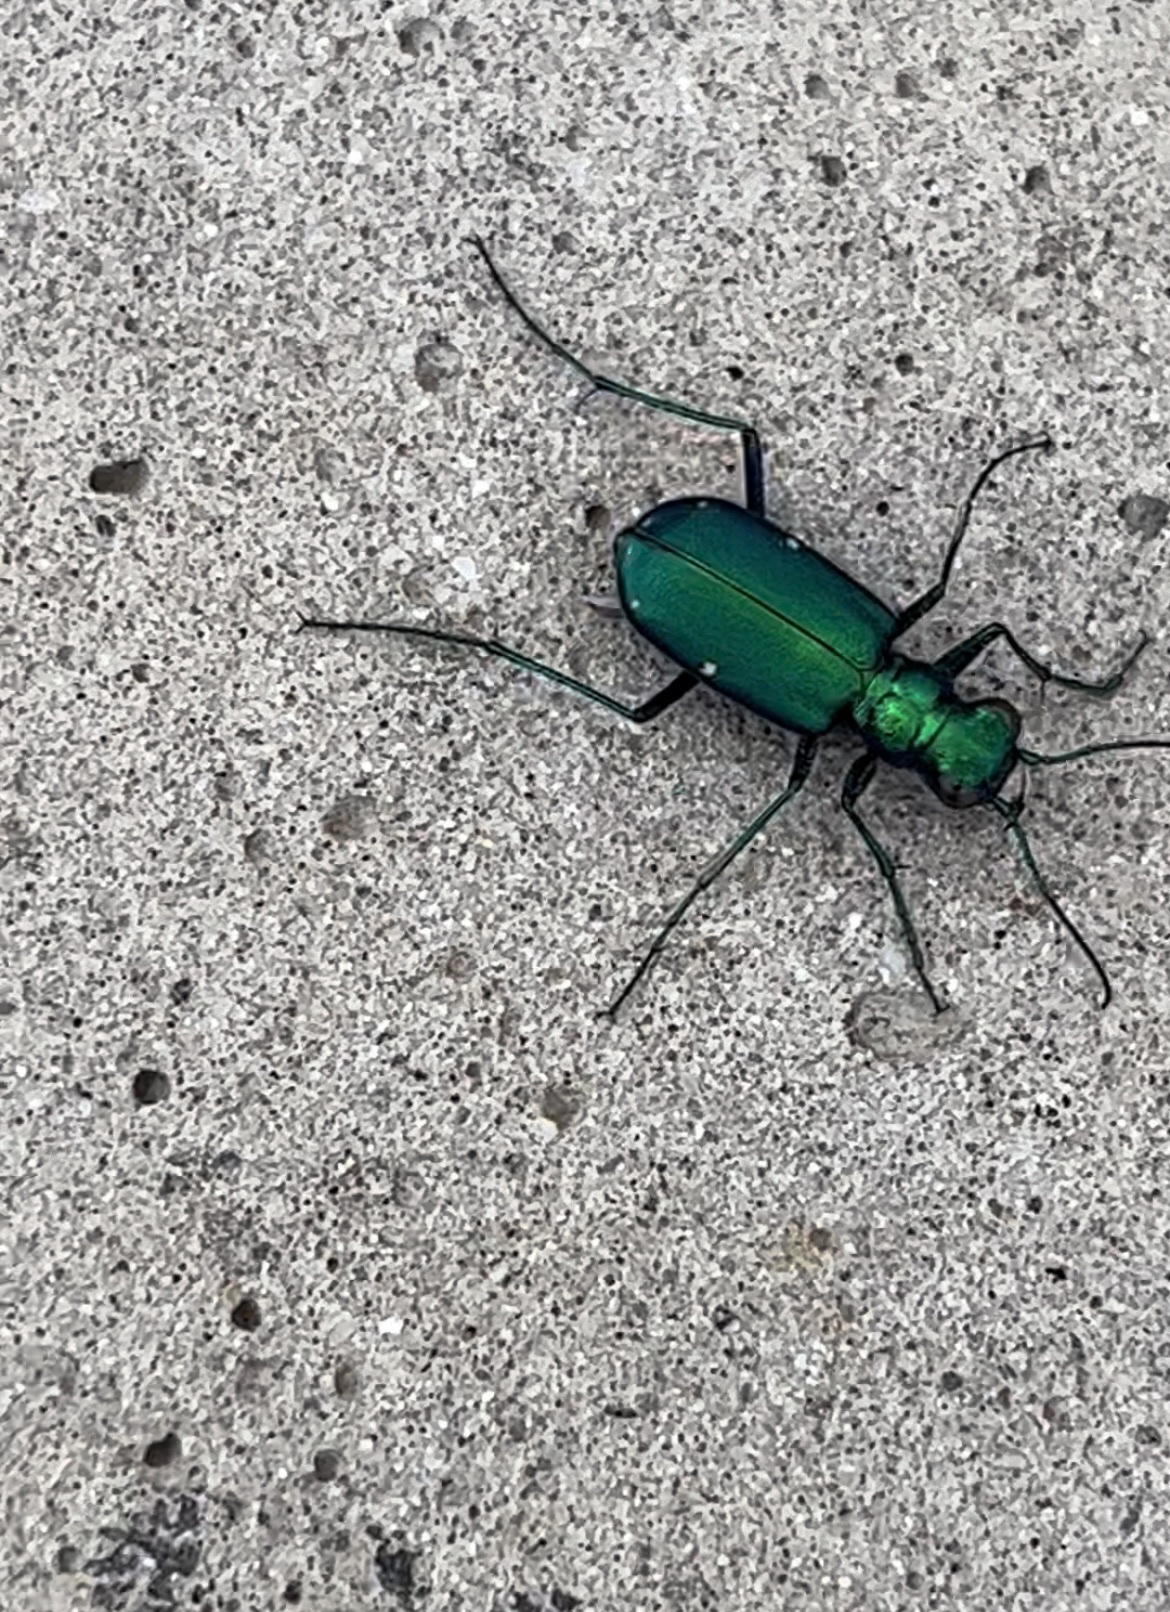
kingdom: Animalia
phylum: Arthropoda
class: Insecta
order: Coleoptera
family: Carabidae
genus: Cicindela
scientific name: Cicindela sexguttata
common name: Six-spotted tiger beetle
